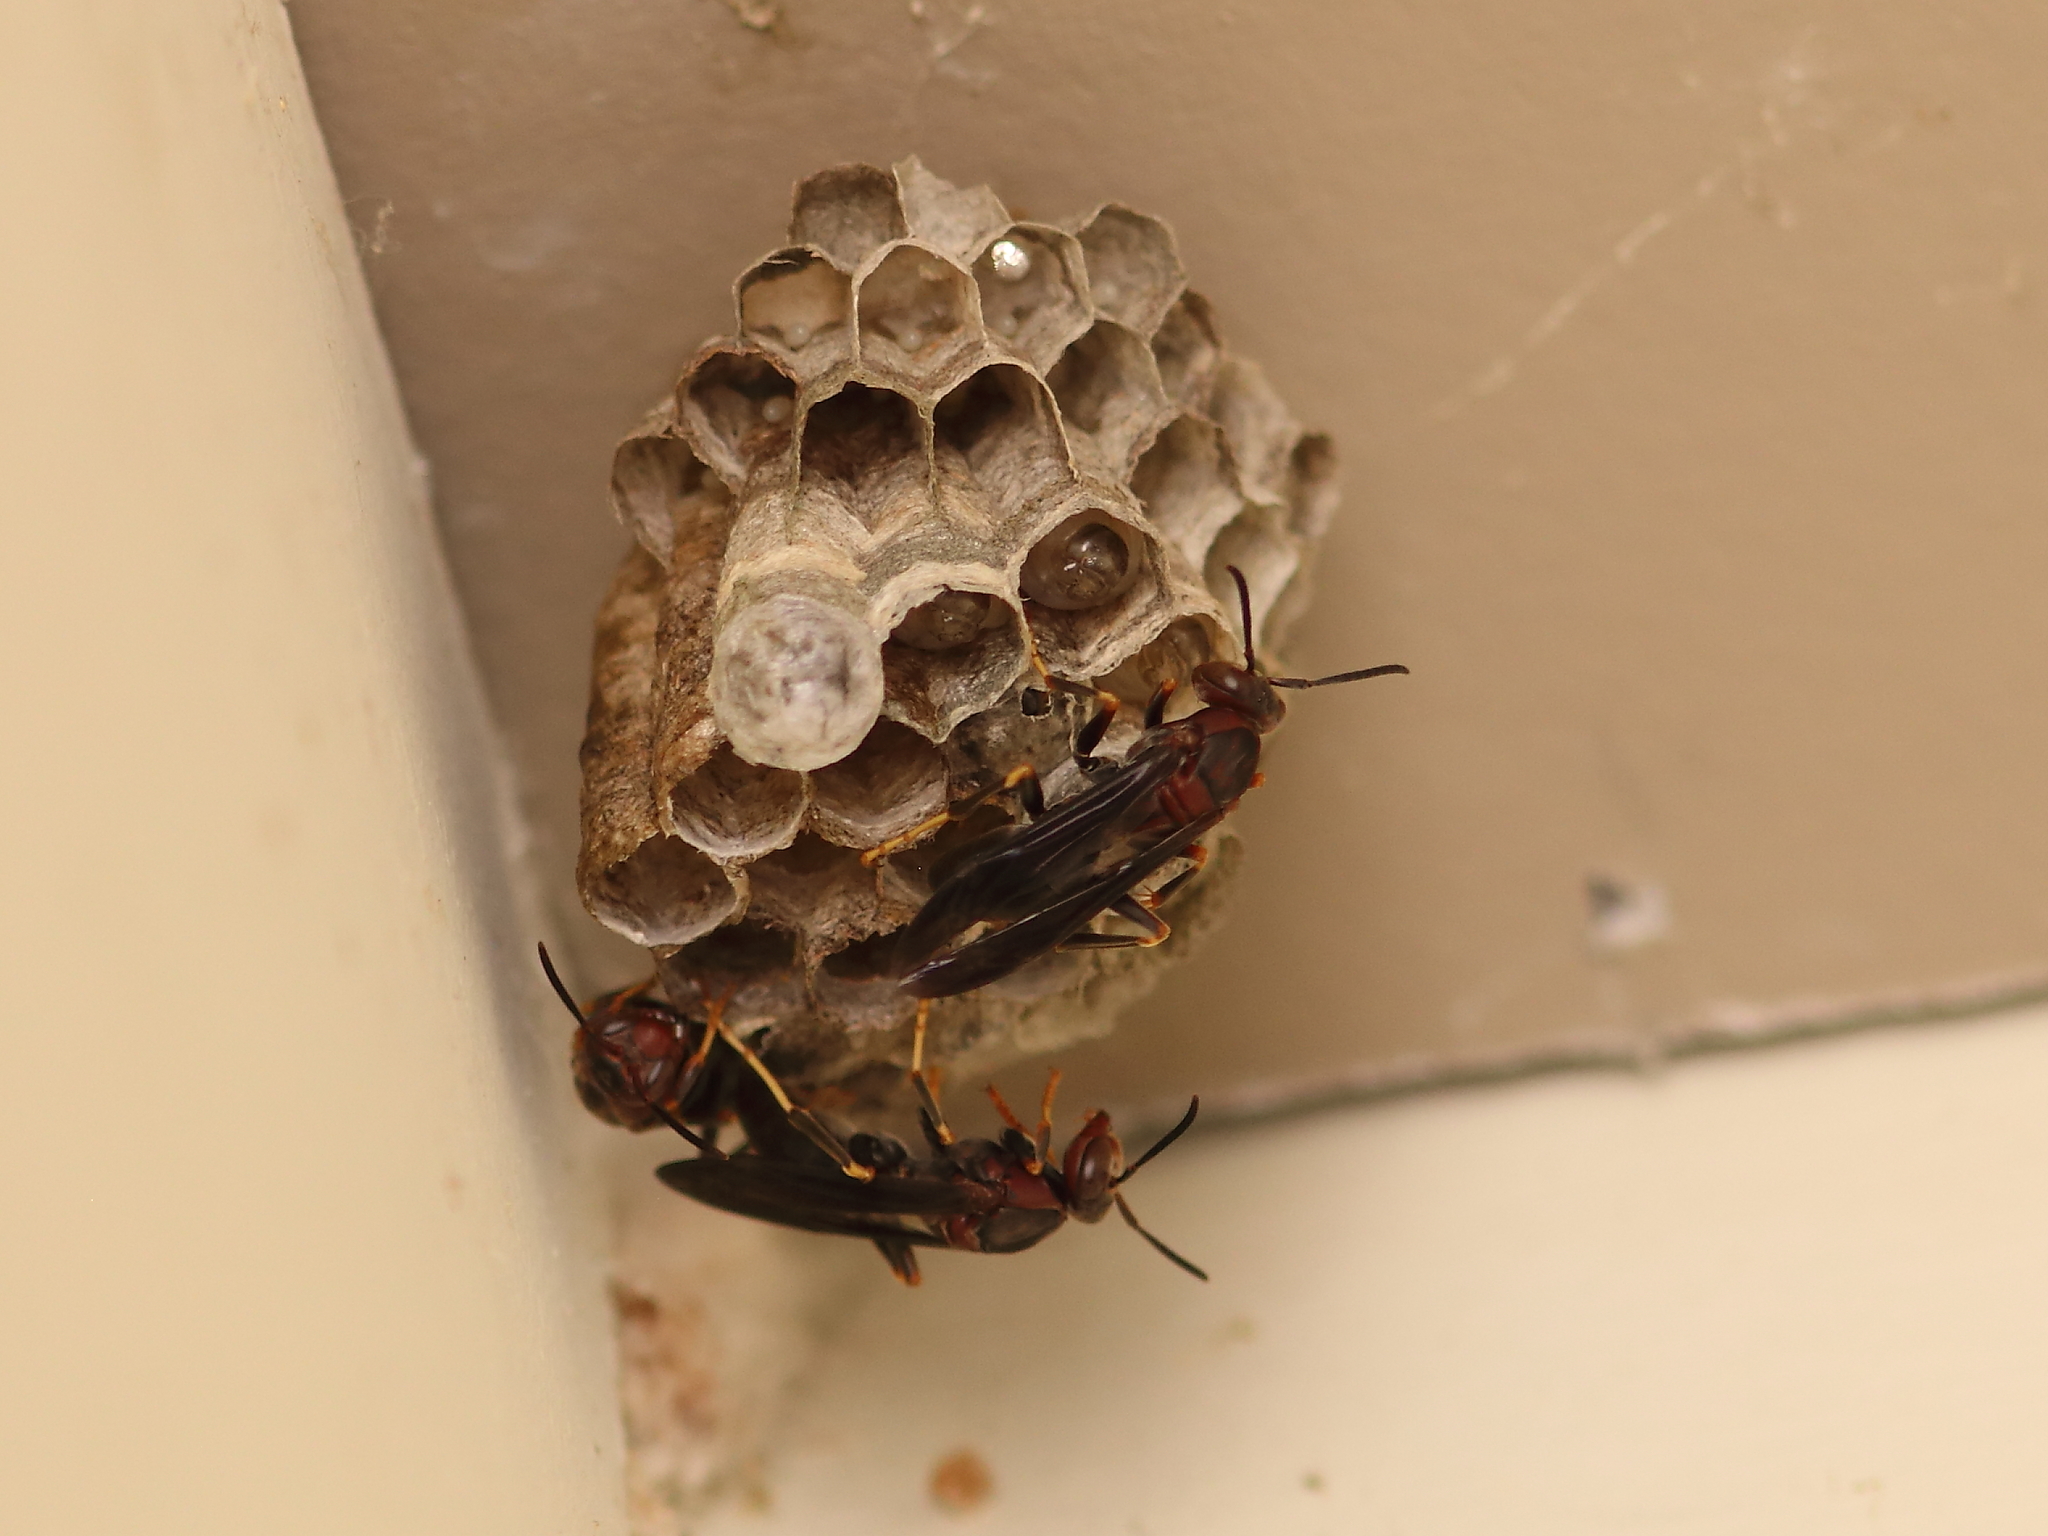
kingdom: Animalia
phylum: Arthropoda
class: Insecta
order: Hymenoptera
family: Eumenidae
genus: Polistes
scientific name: Polistes metricus
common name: Metric paper wasp
